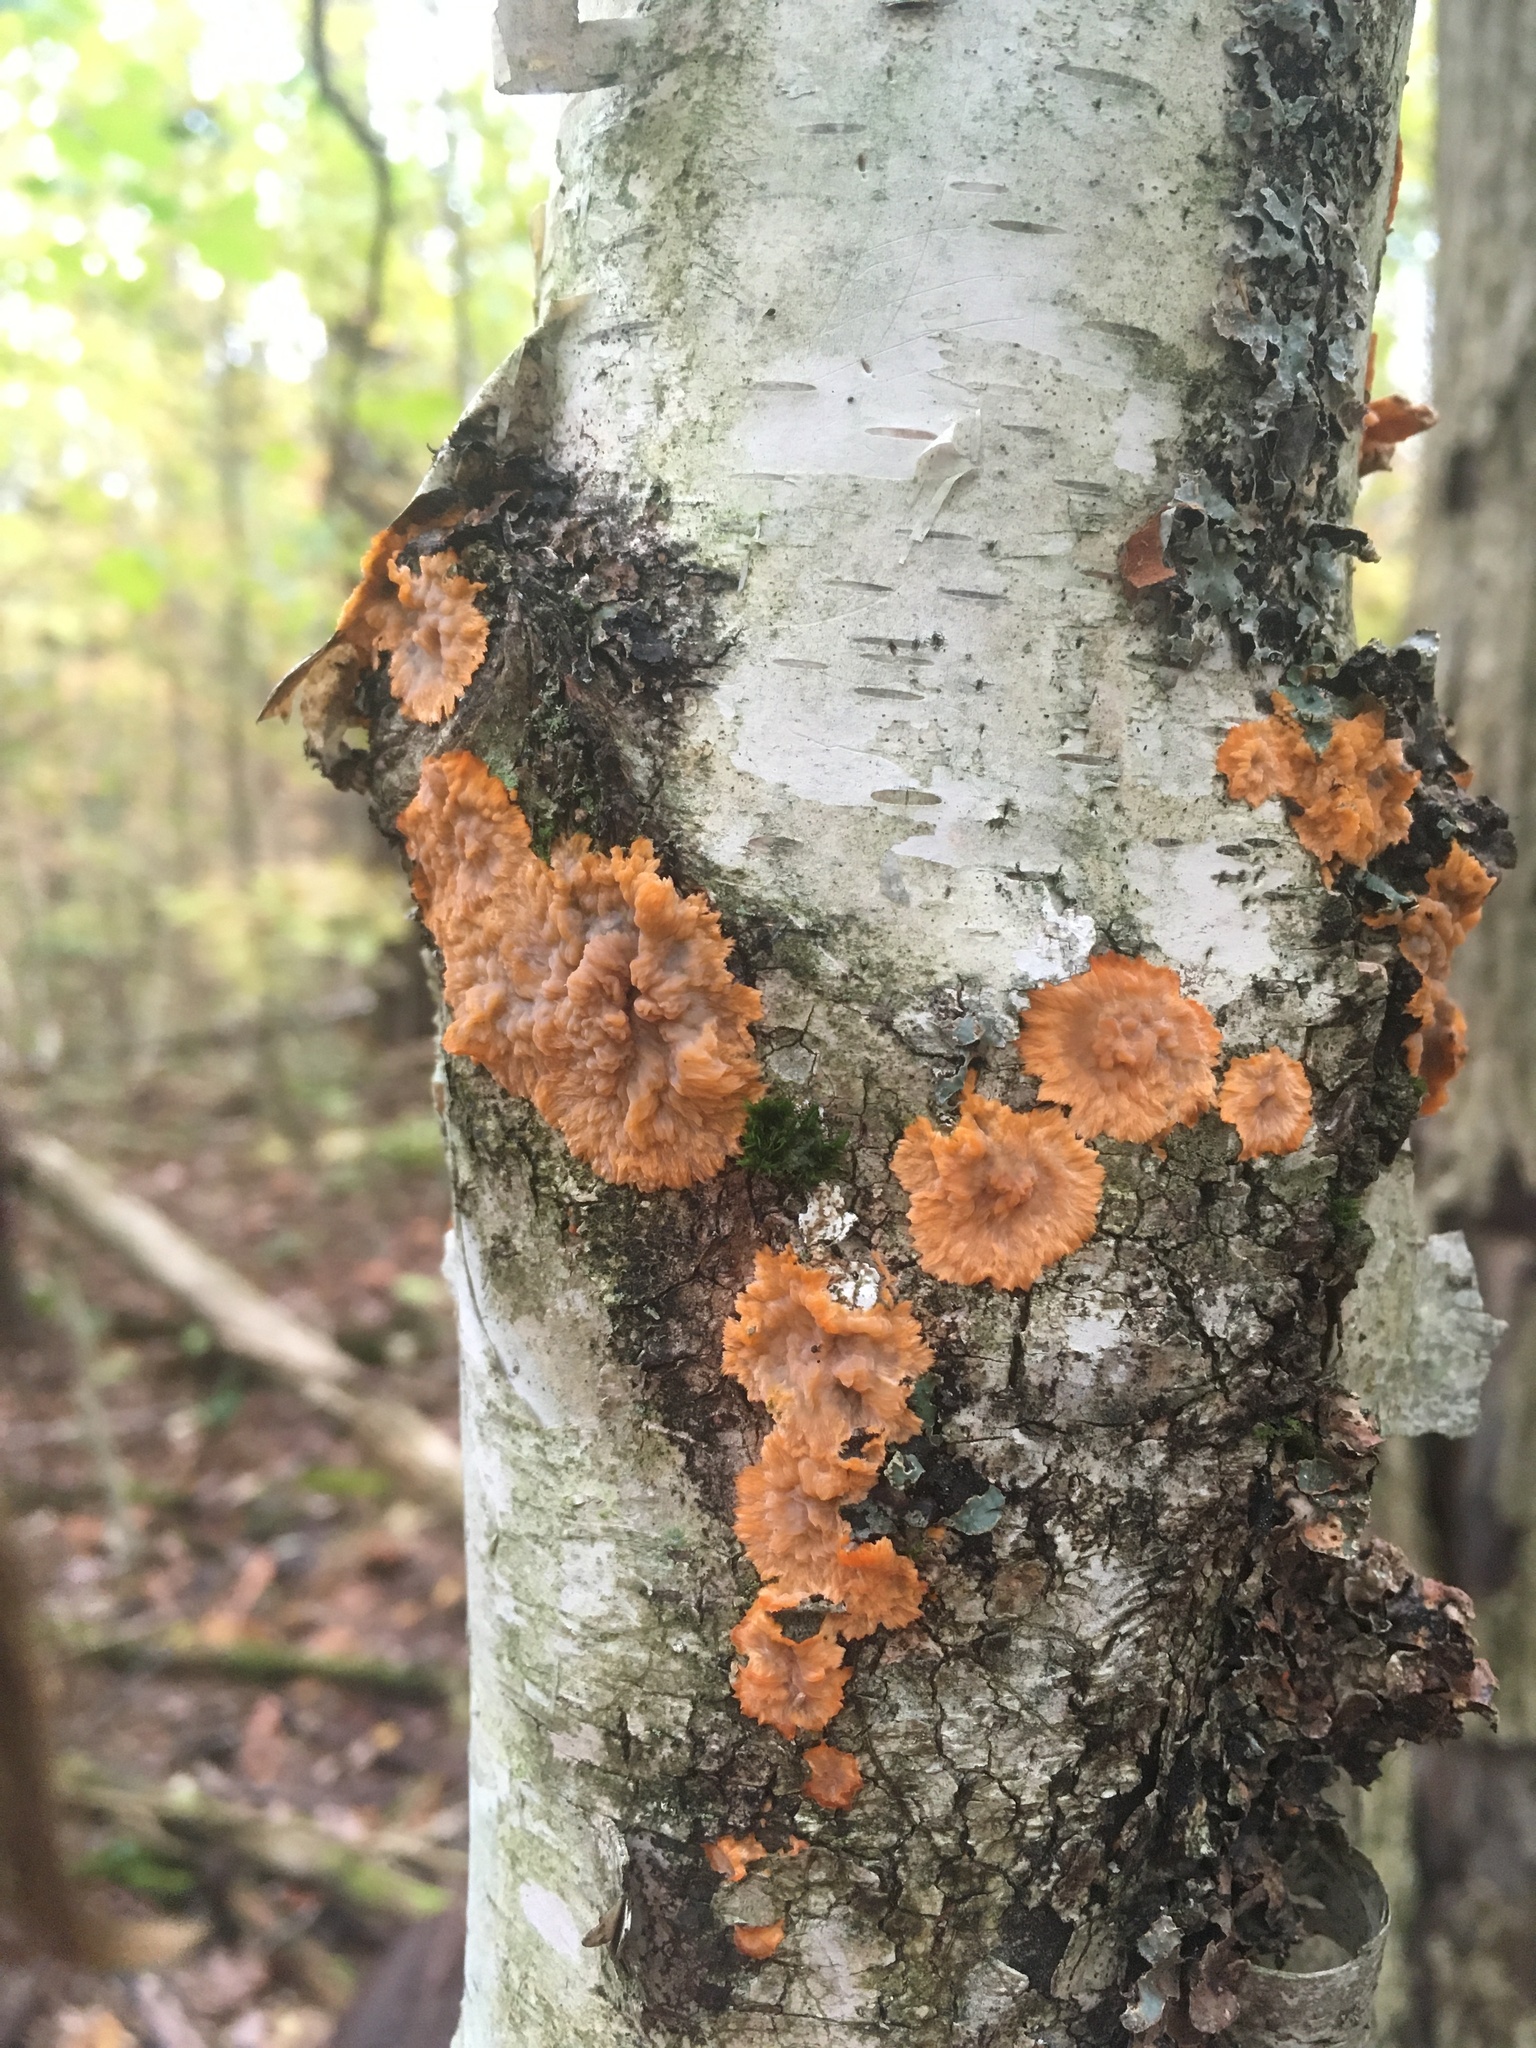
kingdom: Fungi
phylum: Basidiomycota
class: Agaricomycetes
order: Polyporales
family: Meruliaceae
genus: Phlebia
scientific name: Phlebia radiata
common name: Wrinkled crust
